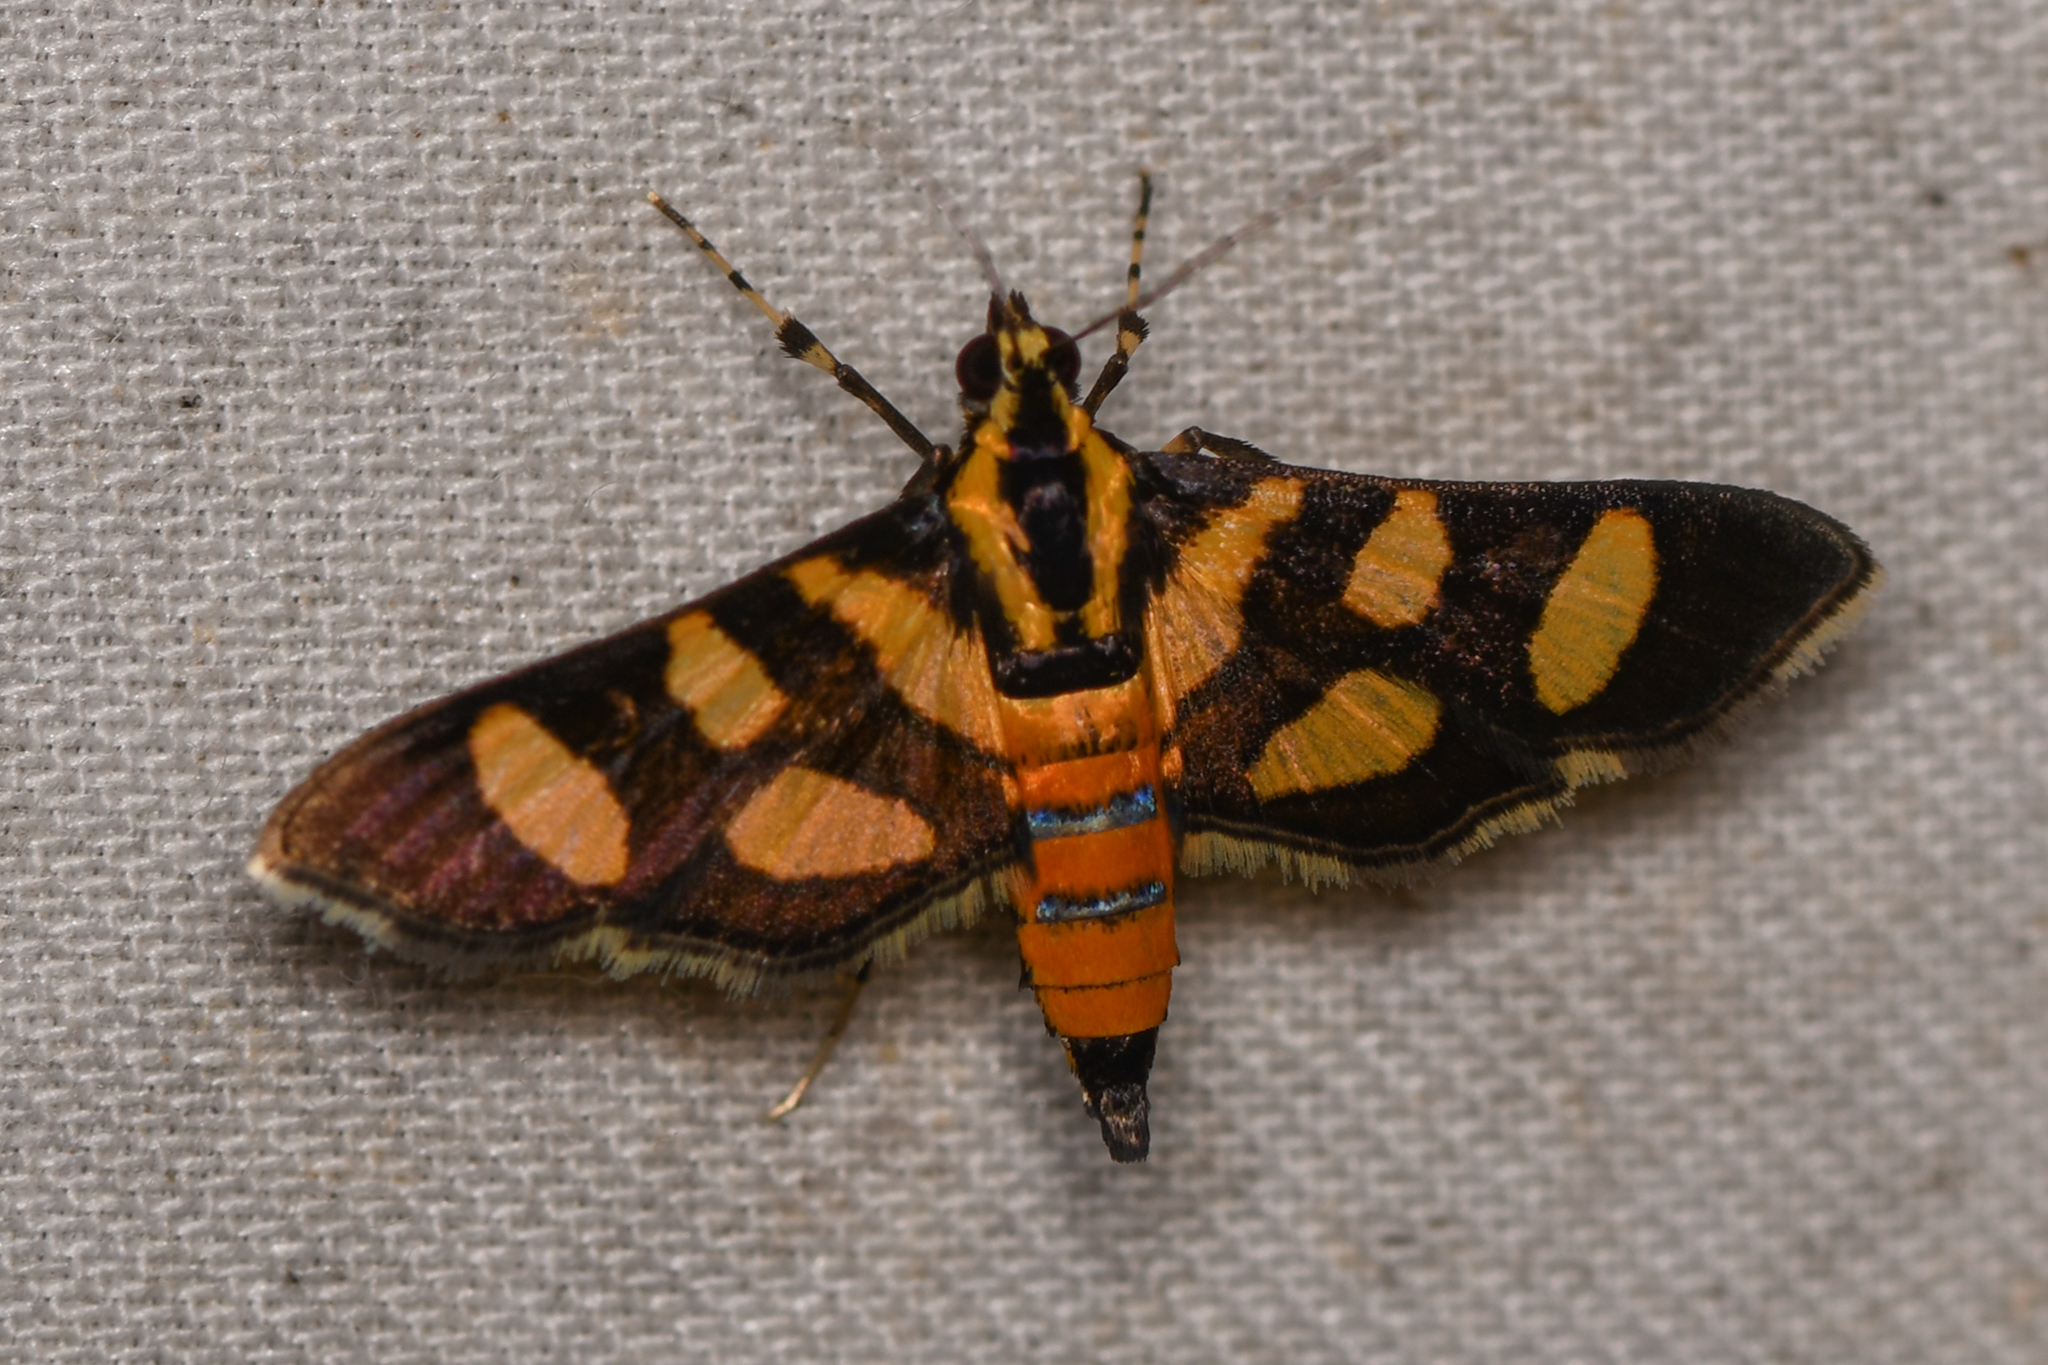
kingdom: Animalia
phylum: Arthropoda
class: Insecta
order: Lepidoptera
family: Crambidae
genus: Syngamia
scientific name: Syngamia florella
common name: Orange-spotted flower moth
